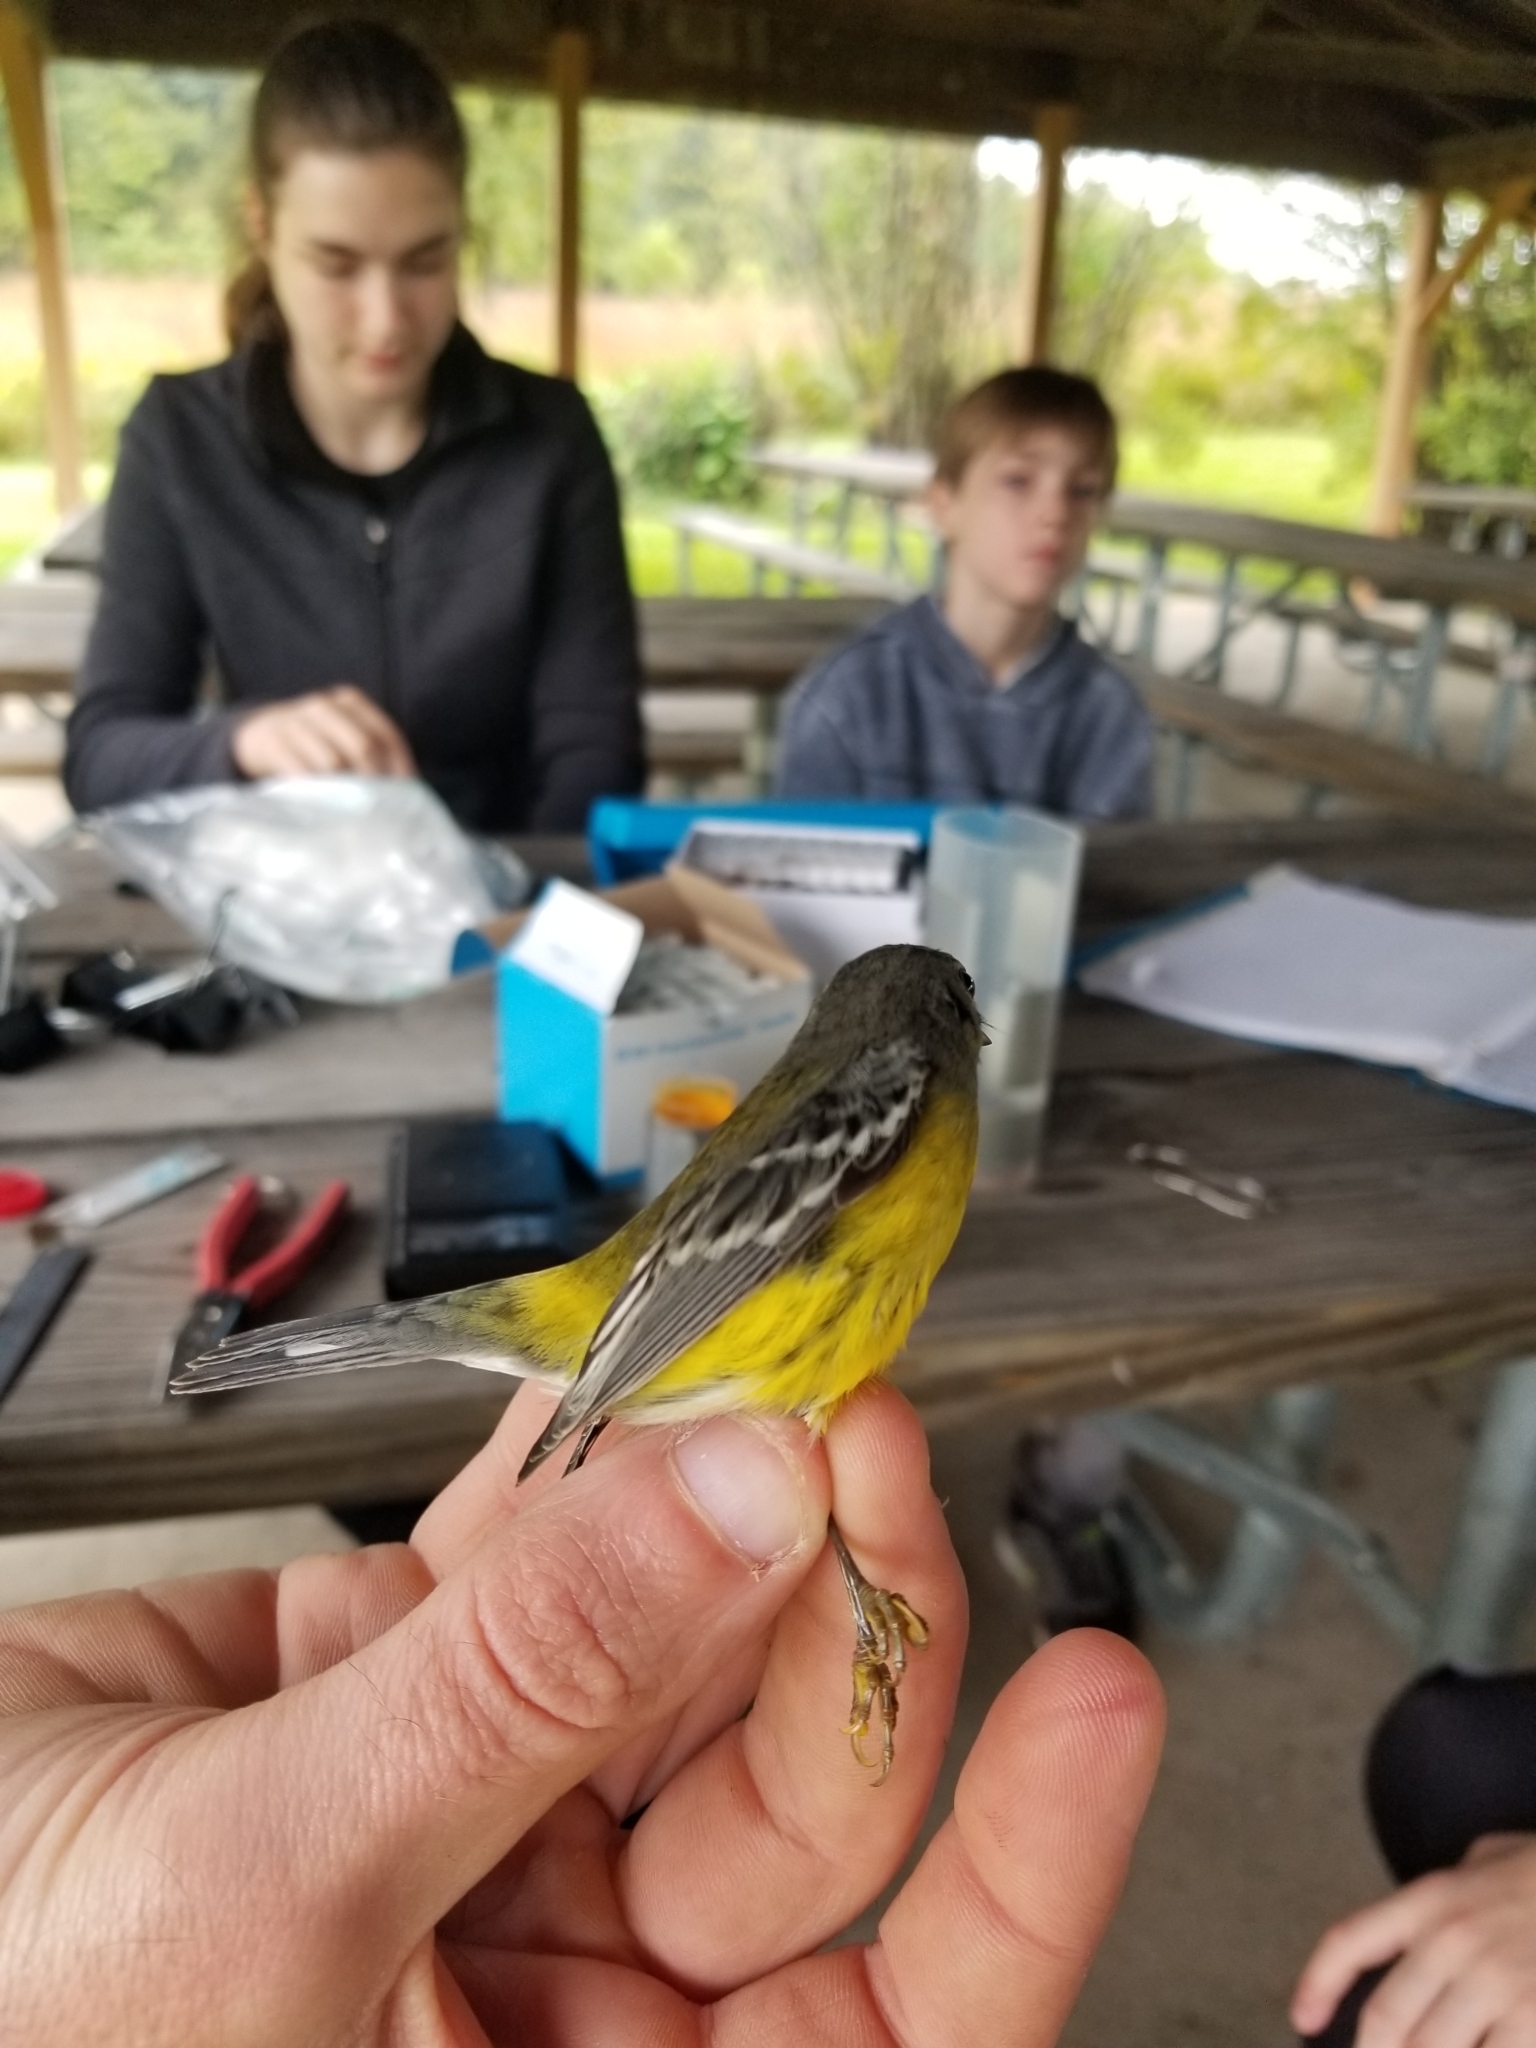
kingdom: Animalia
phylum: Chordata
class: Aves
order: Passeriformes
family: Parulidae
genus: Setophaga
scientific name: Setophaga magnolia
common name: Magnolia warbler
